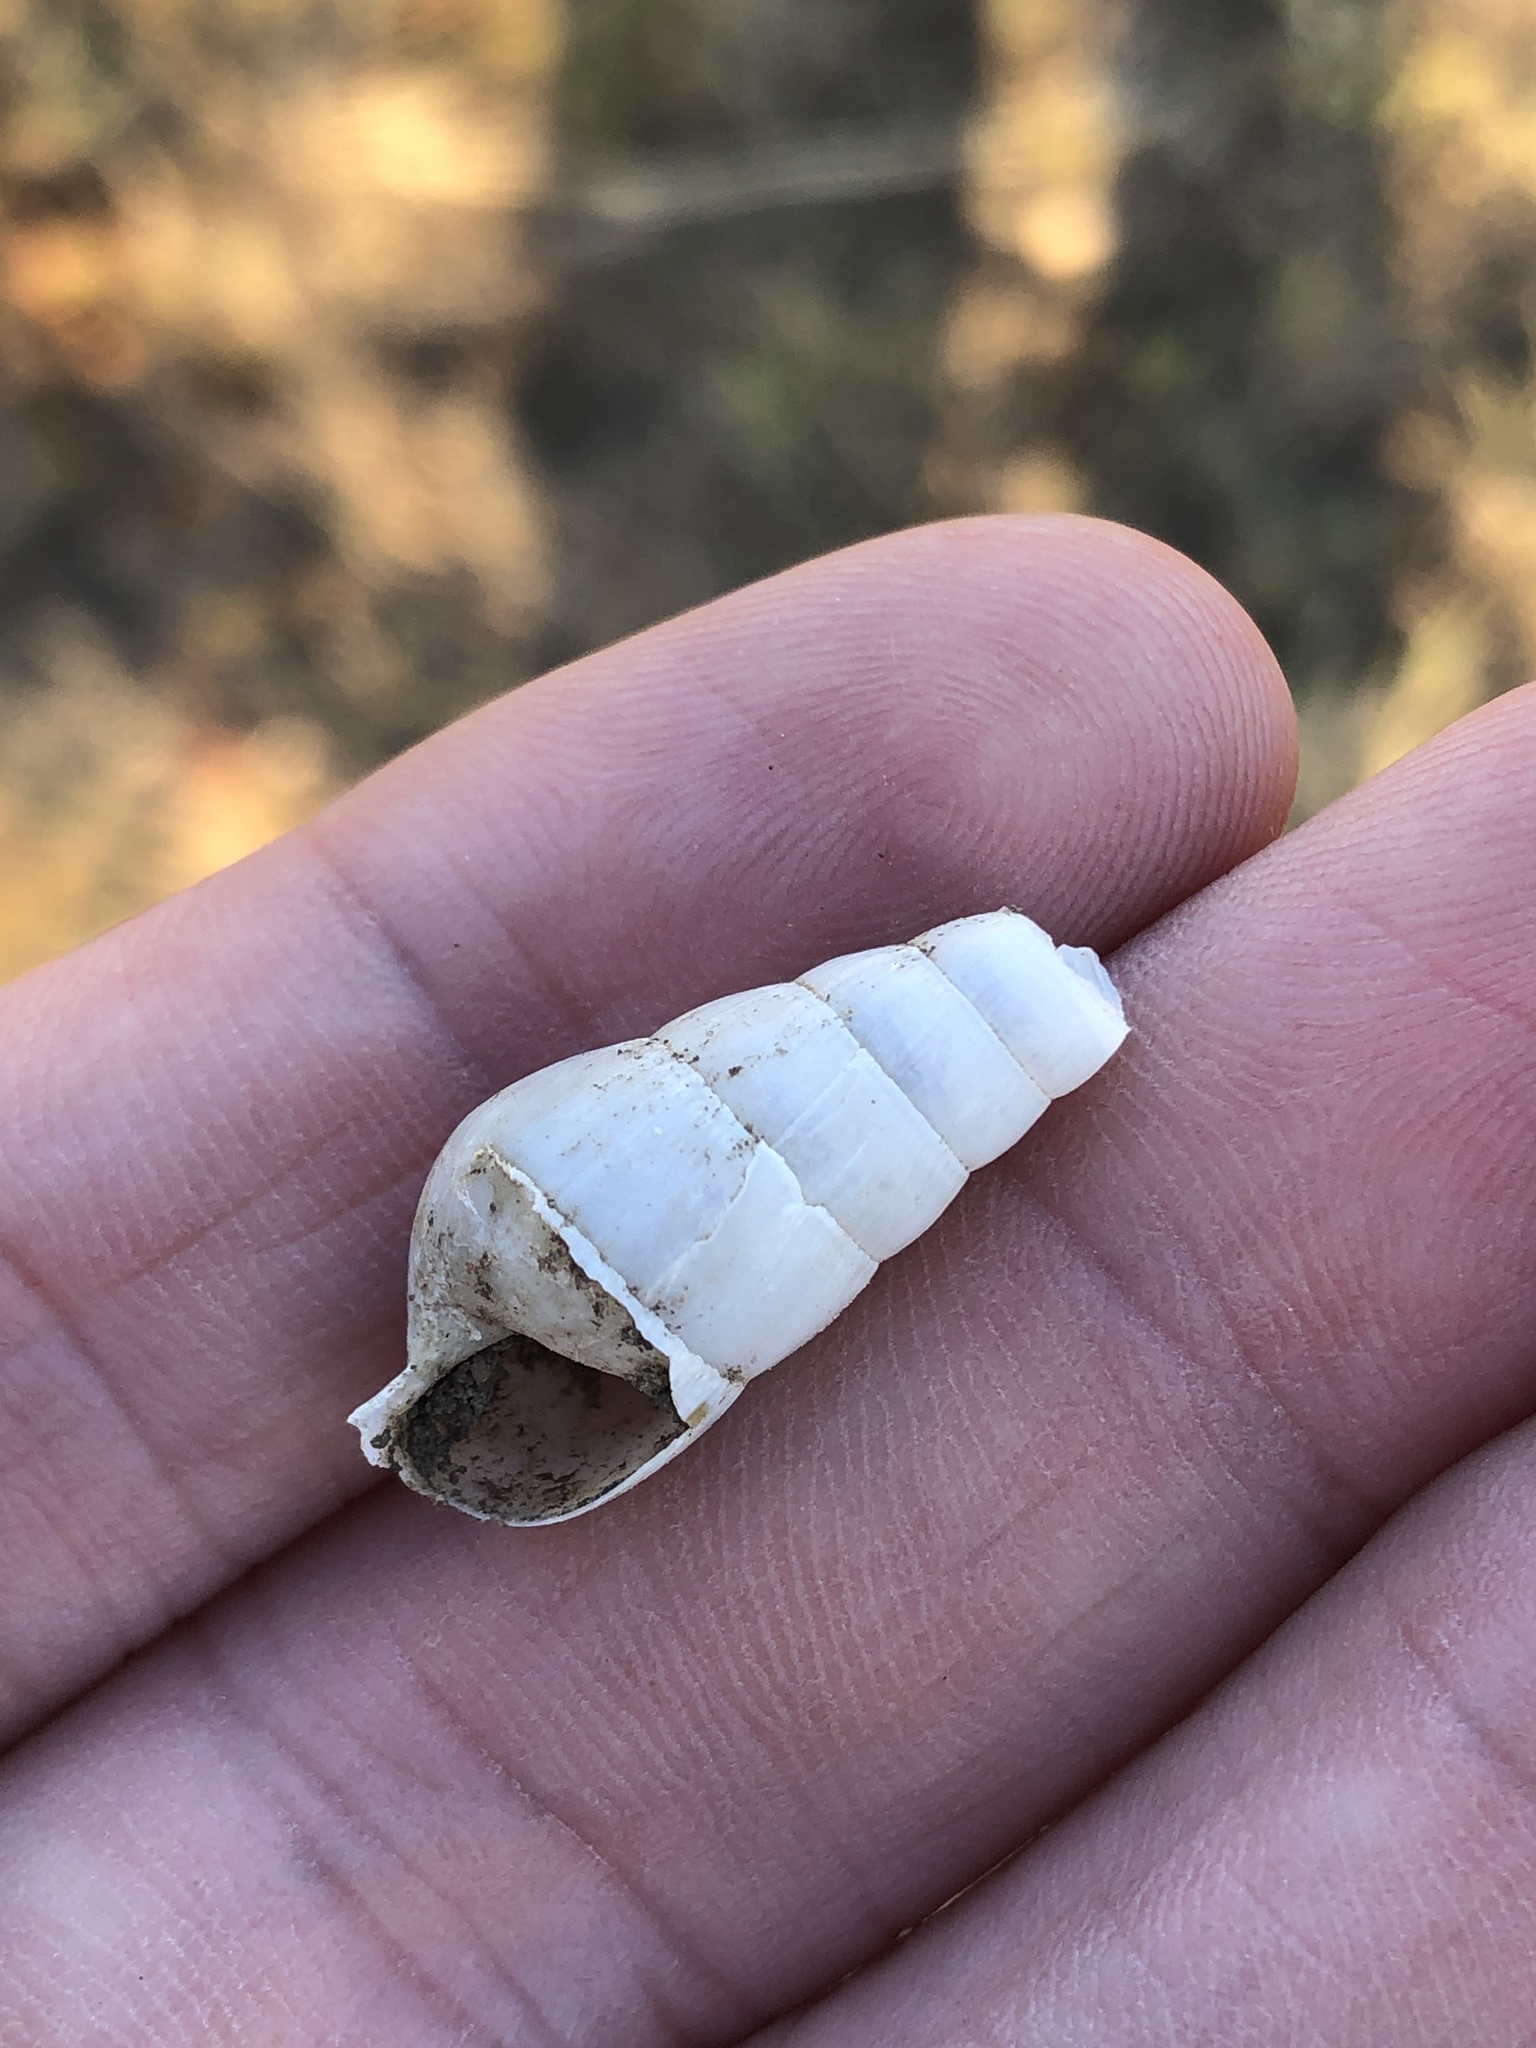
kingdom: Animalia
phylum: Mollusca
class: Gastropoda
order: Stylommatophora
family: Achatinidae
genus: Rumina
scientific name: Rumina decollata
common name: Decollate snail
